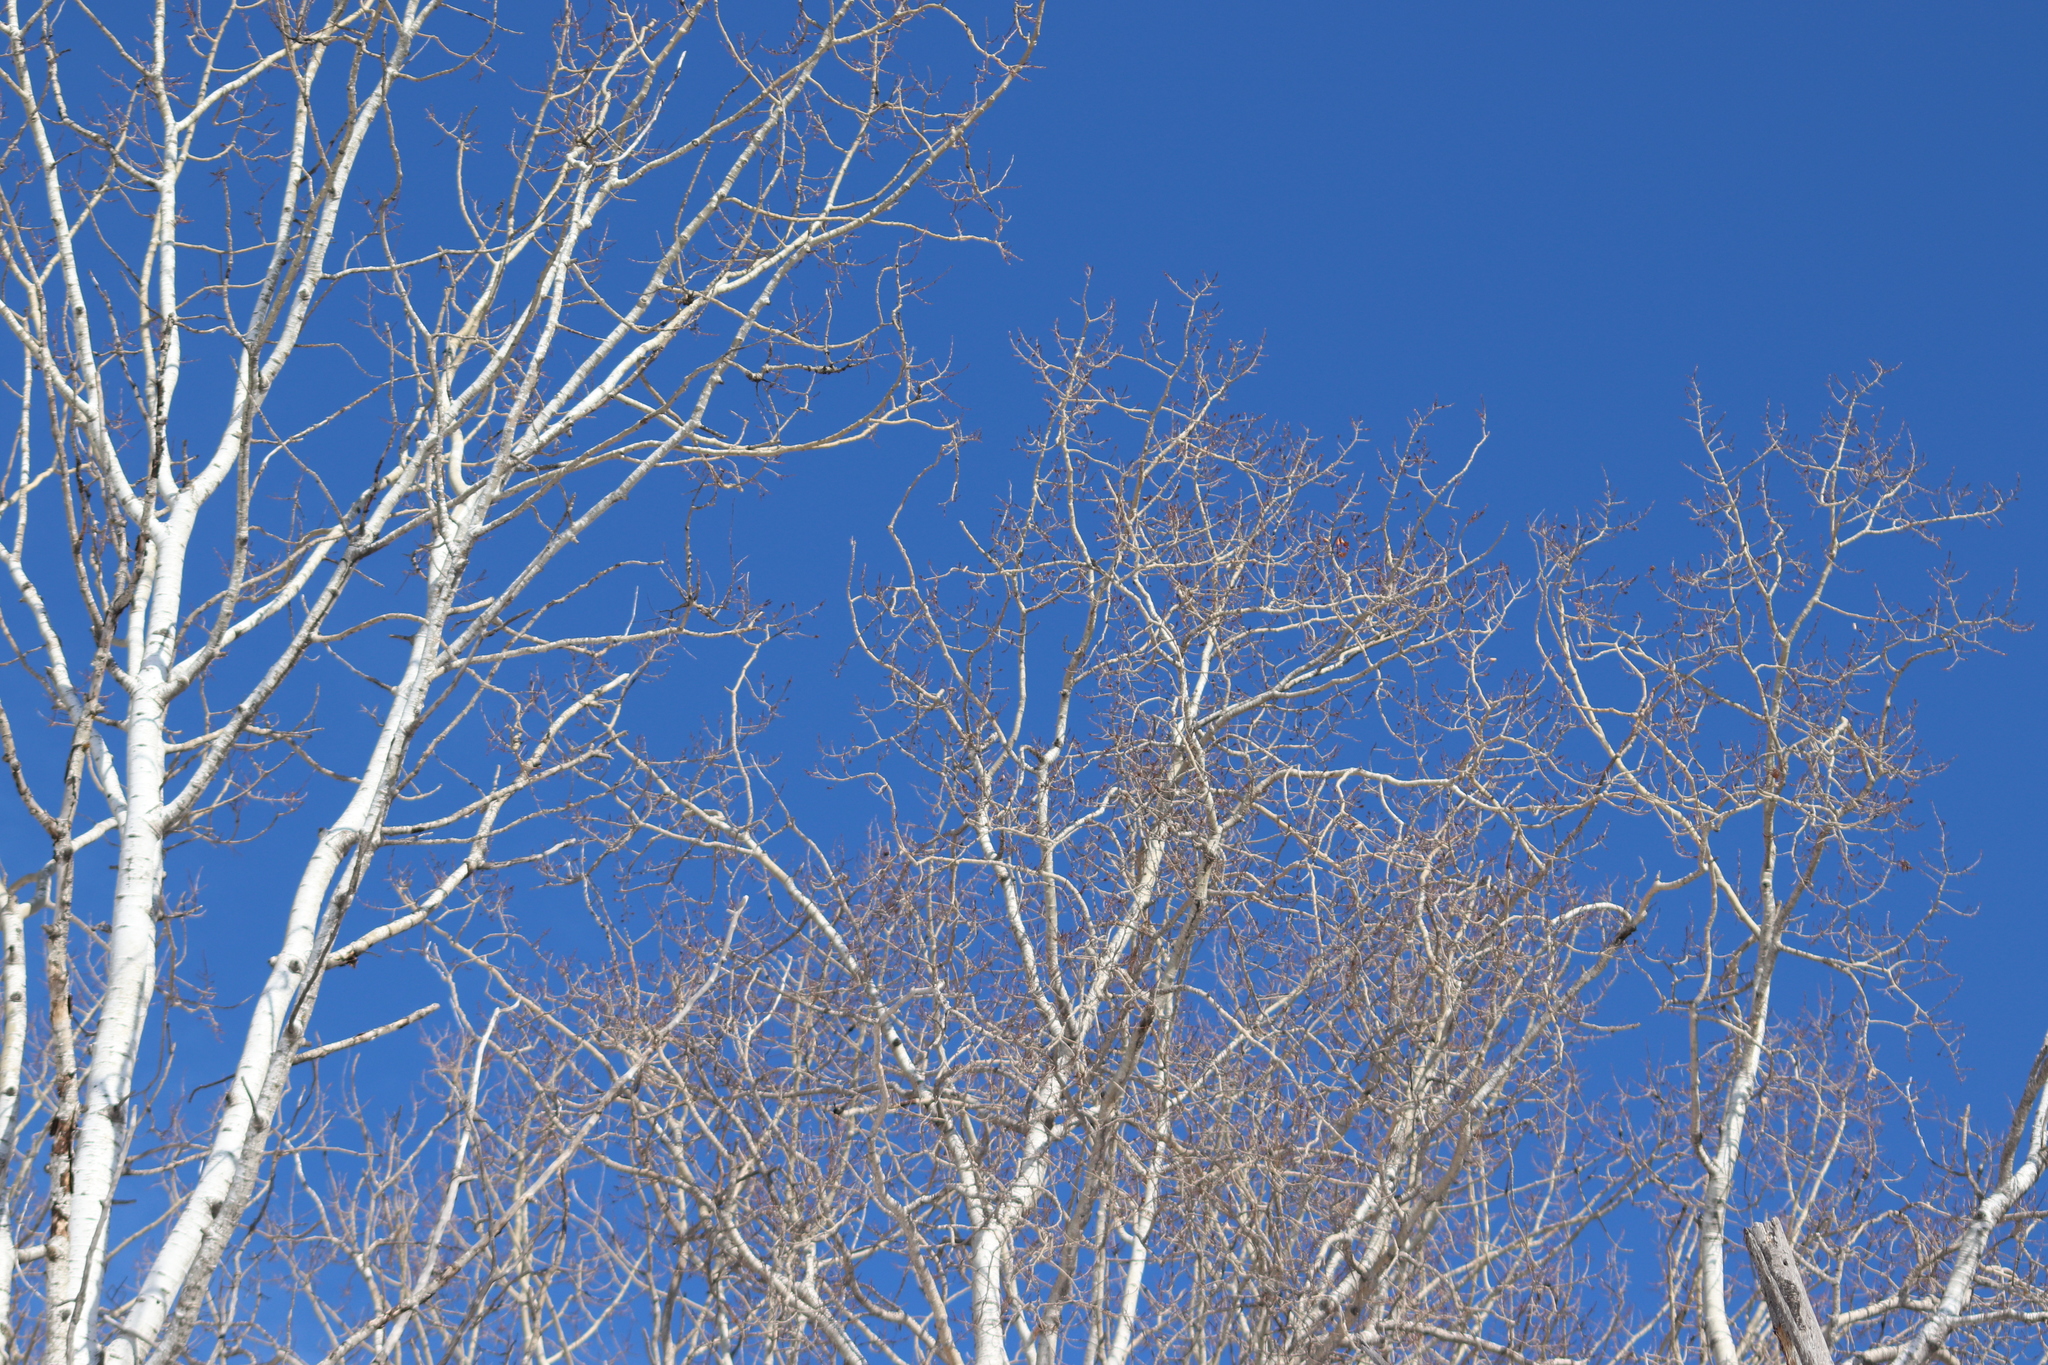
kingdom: Plantae
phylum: Tracheophyta
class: Magnoliopsida
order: Malpighiales
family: Salicaceae
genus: Populus
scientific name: Populus tremuloides
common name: Quaking aspen
